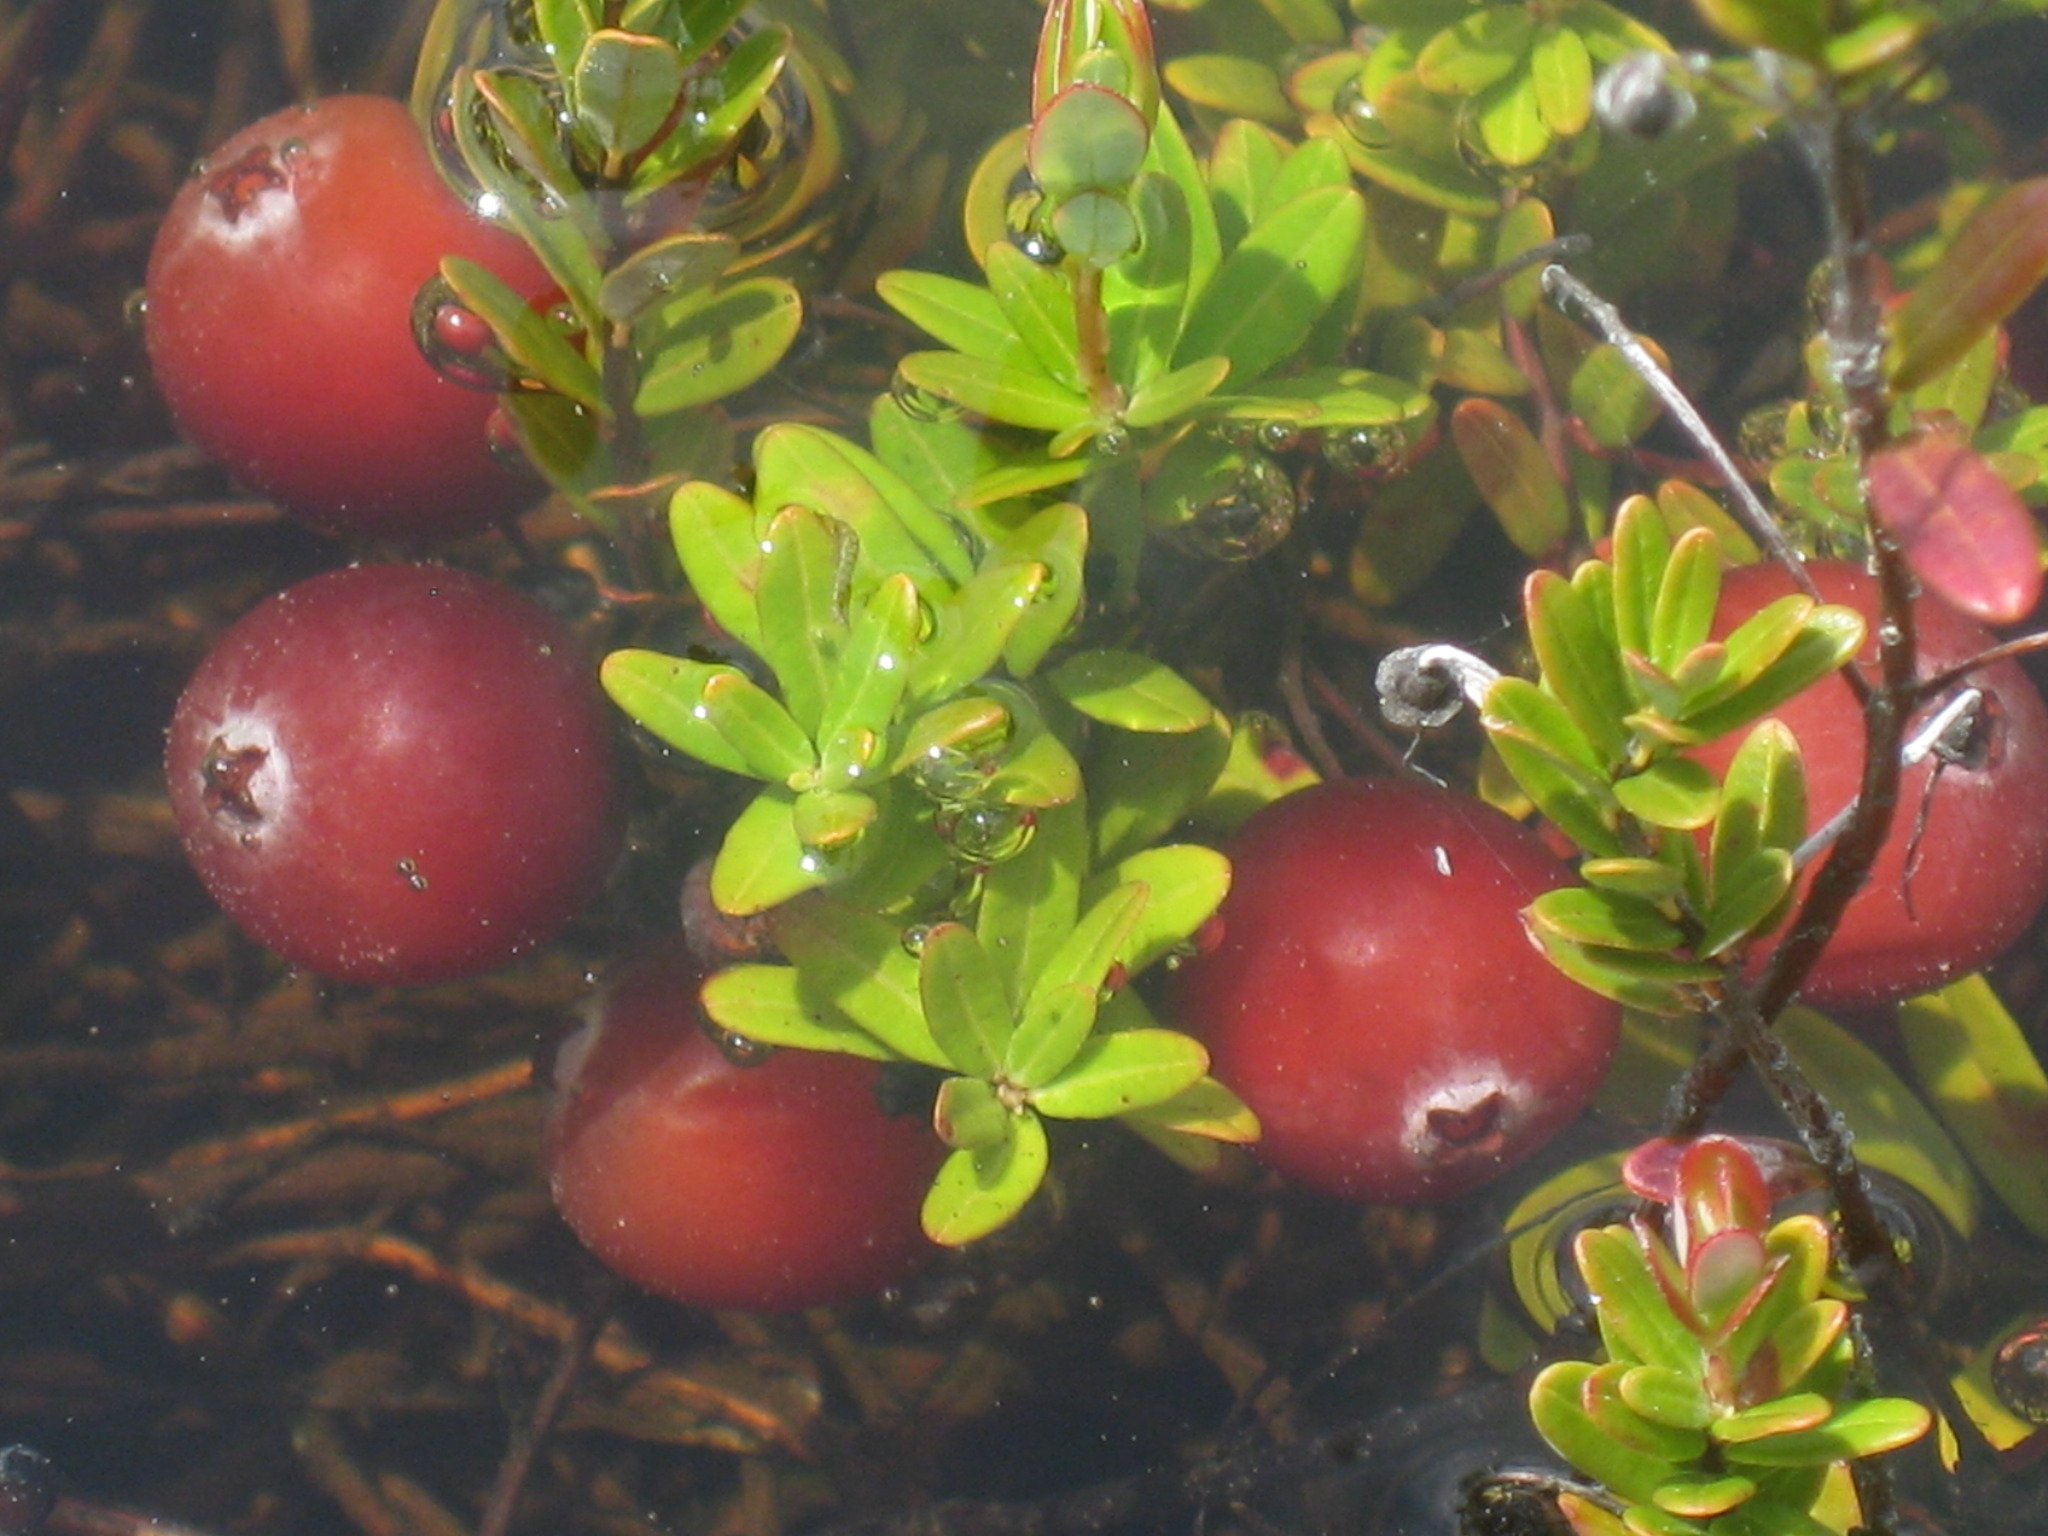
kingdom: Plantae
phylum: Tracheophyta
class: Magnoliopsida
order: Ericales
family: Ericaceae
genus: Vaccinium
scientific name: Vaccinium macrocarpon
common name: American cranberry
